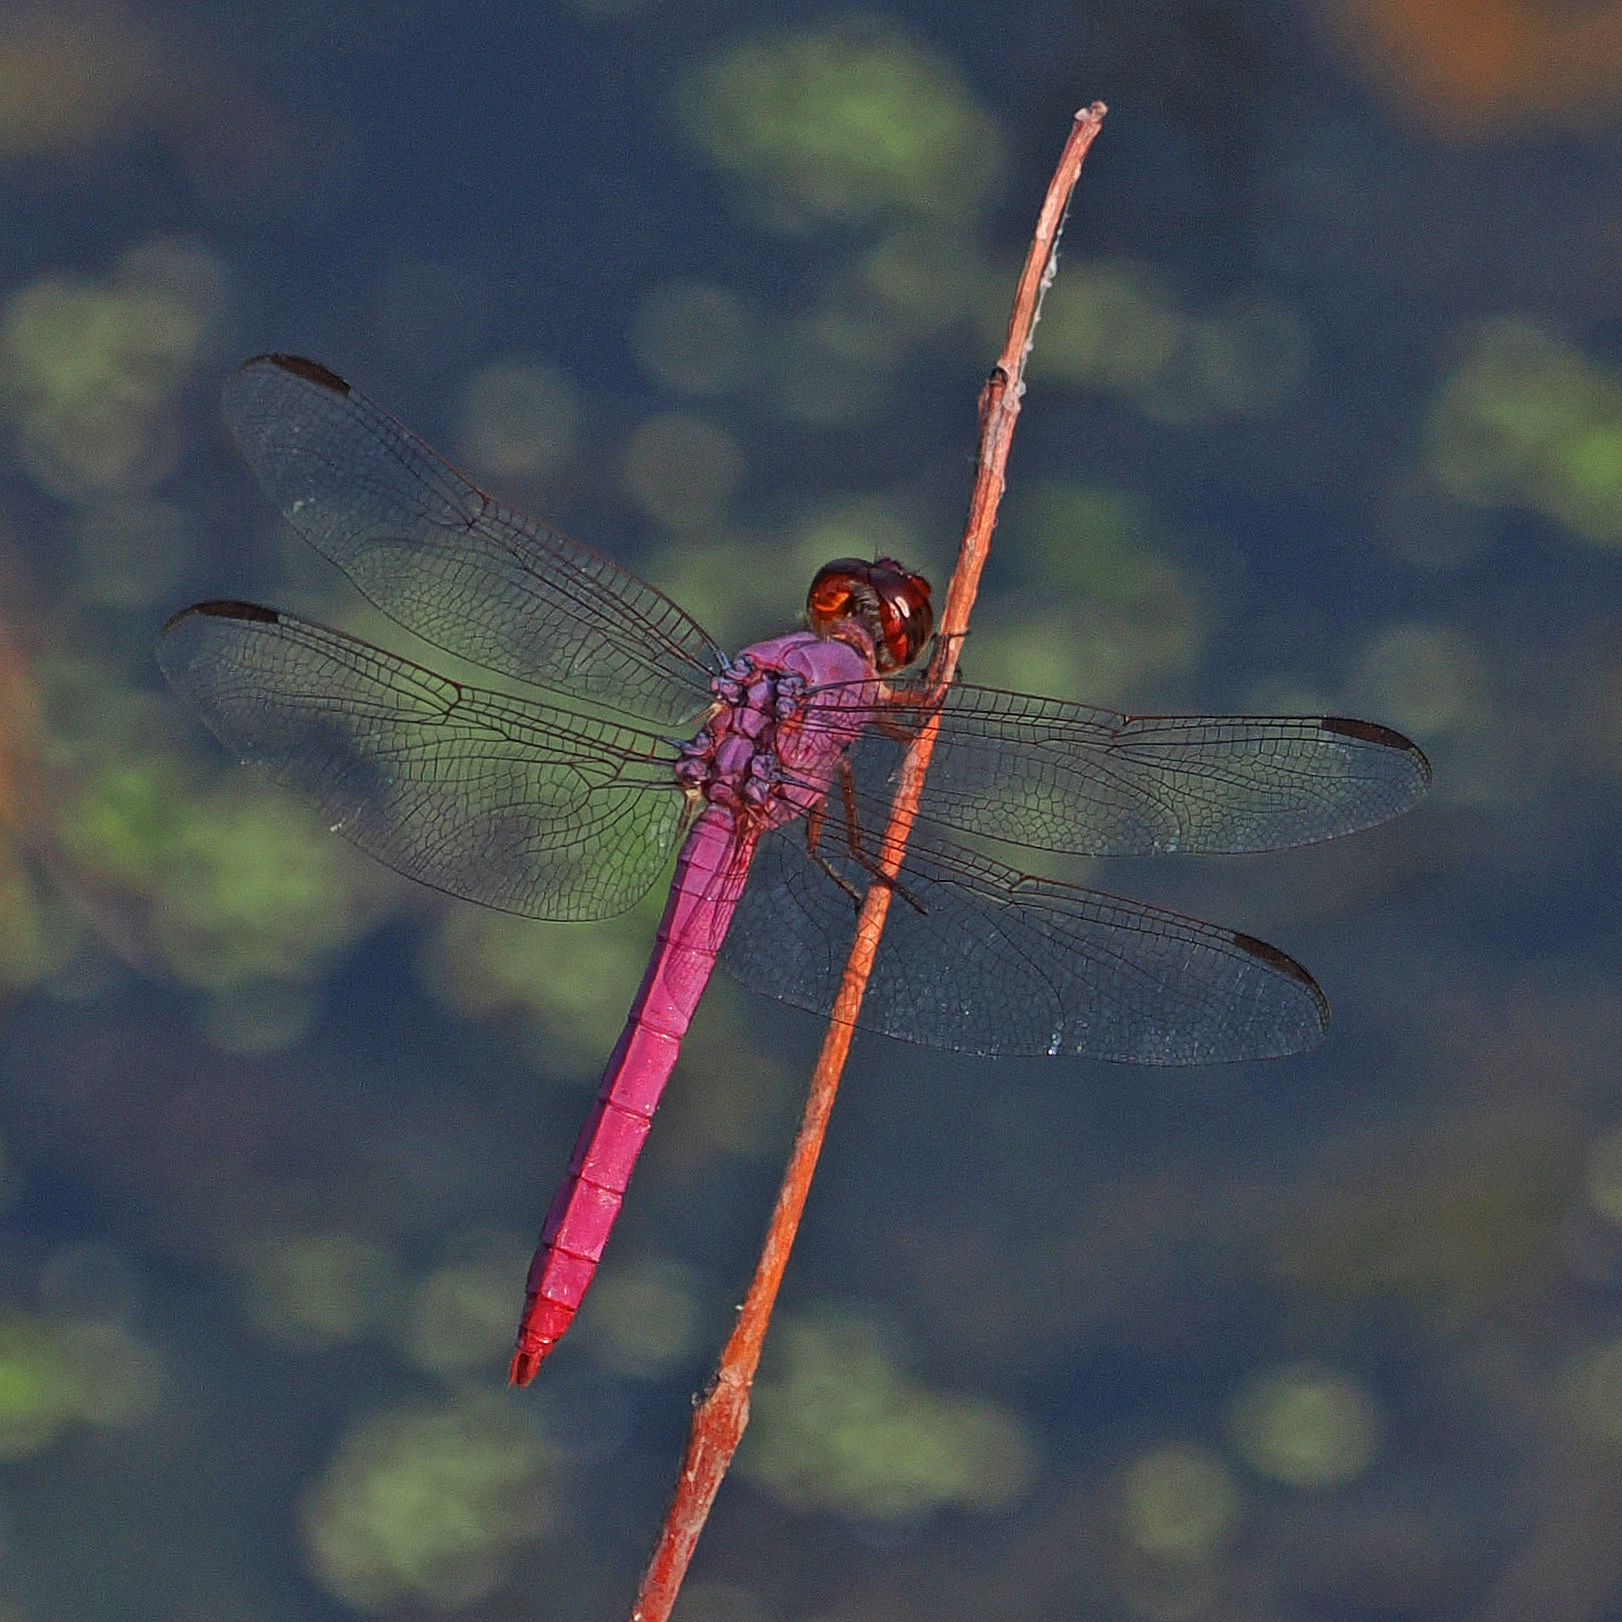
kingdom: Animalia
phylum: Arthropoda
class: Insecta
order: Odonata
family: Libellulidae
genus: Orthemis
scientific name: Orthemis ferruginea
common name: Roseate skimmer
